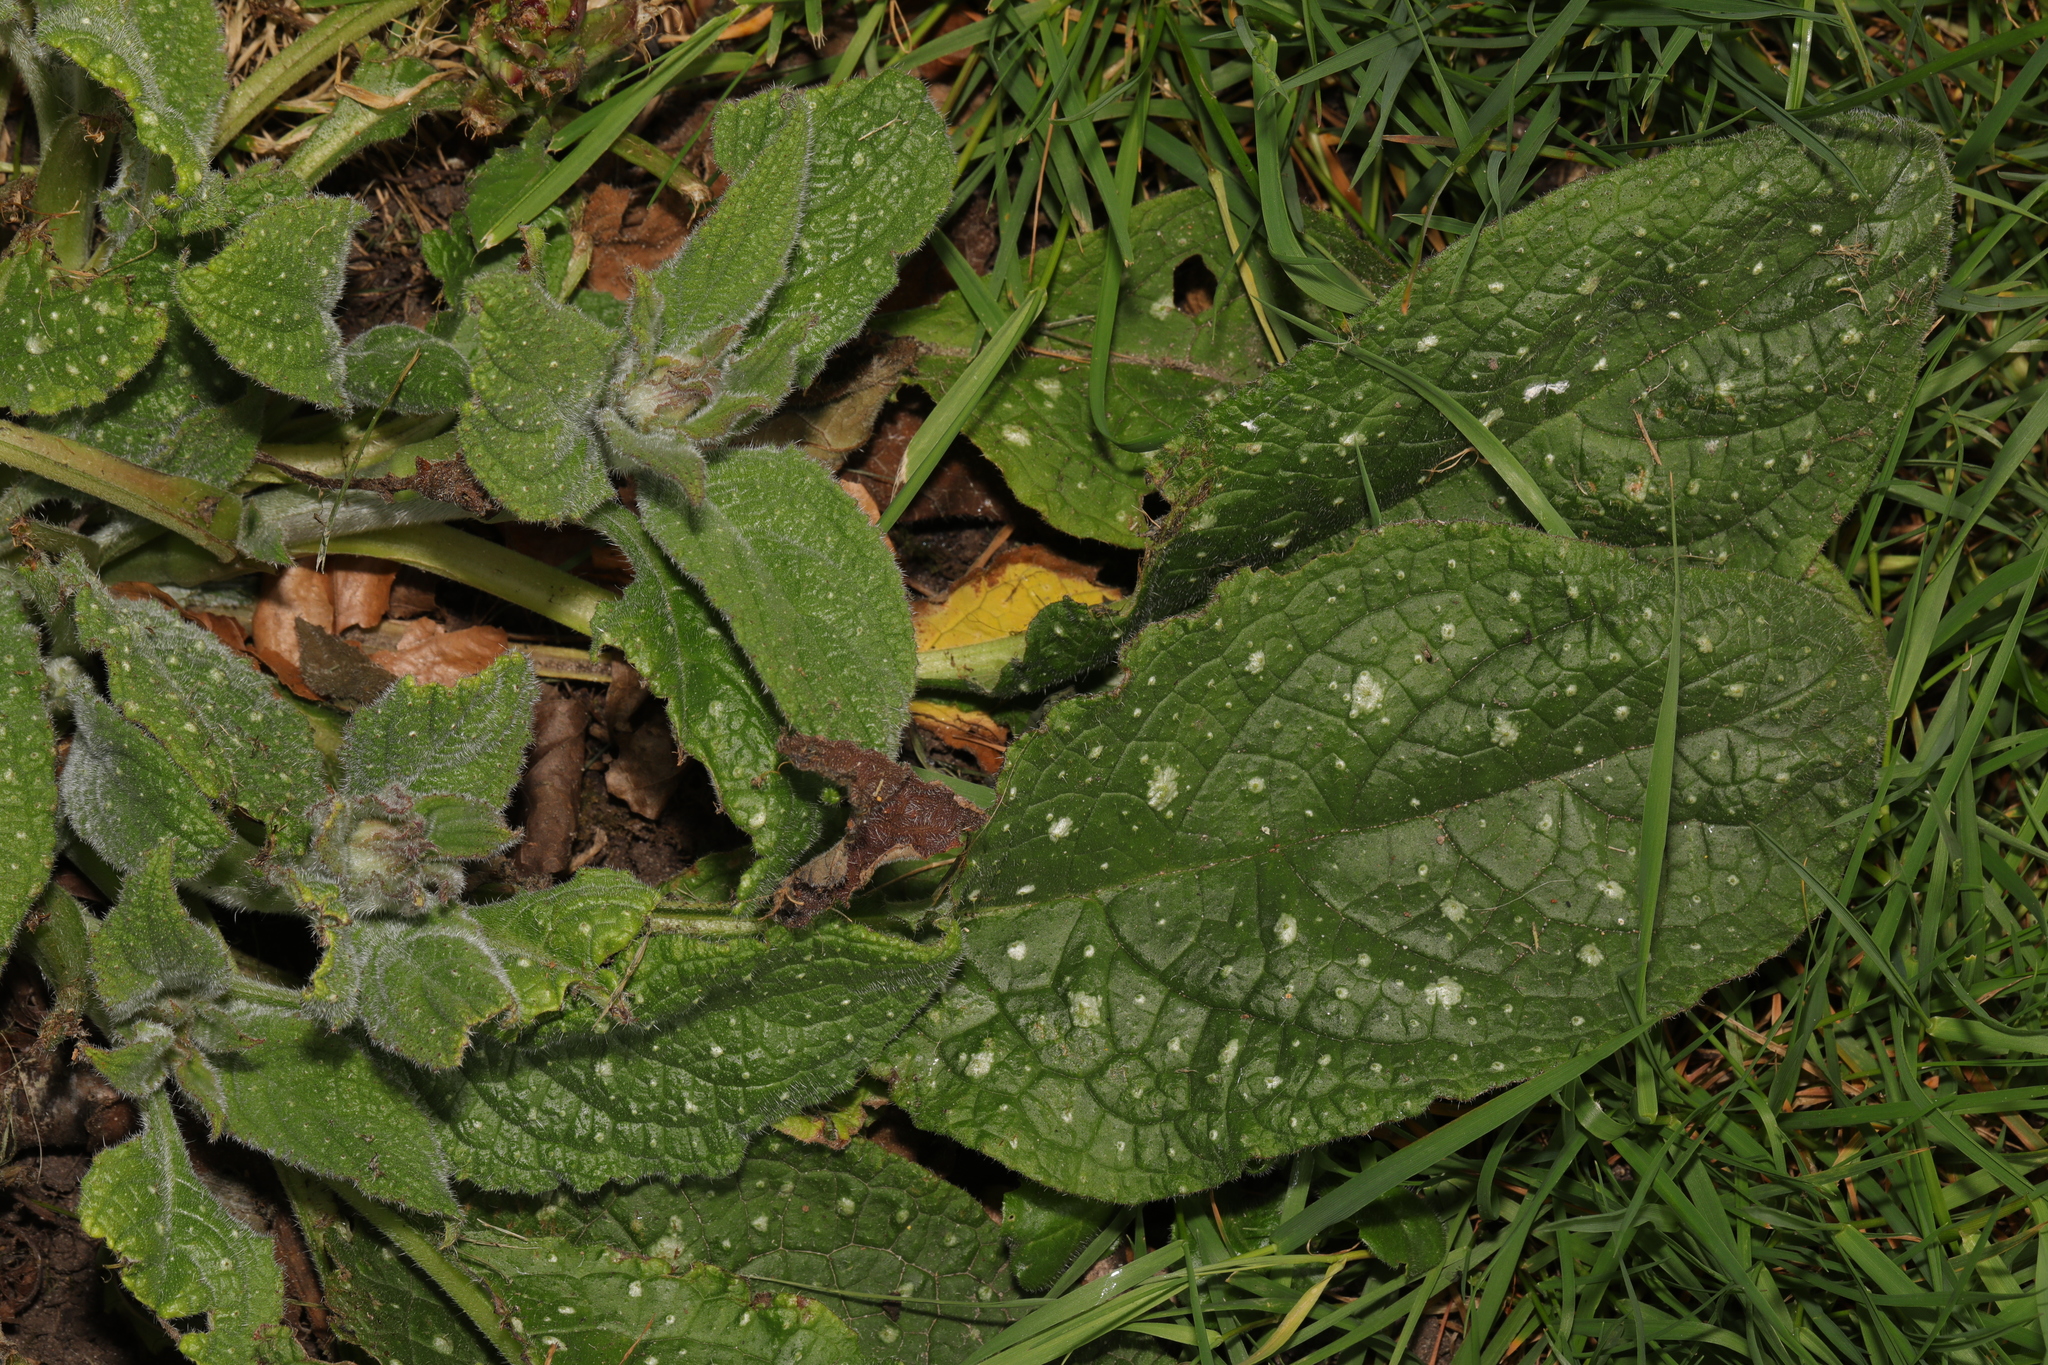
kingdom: Plantae
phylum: Tracheophyta
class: Magnoliopsida
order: Boraginales
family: Boraginaceae
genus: Pentaglottis
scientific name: Pentaglottis sempervirens
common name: Green alkanet
